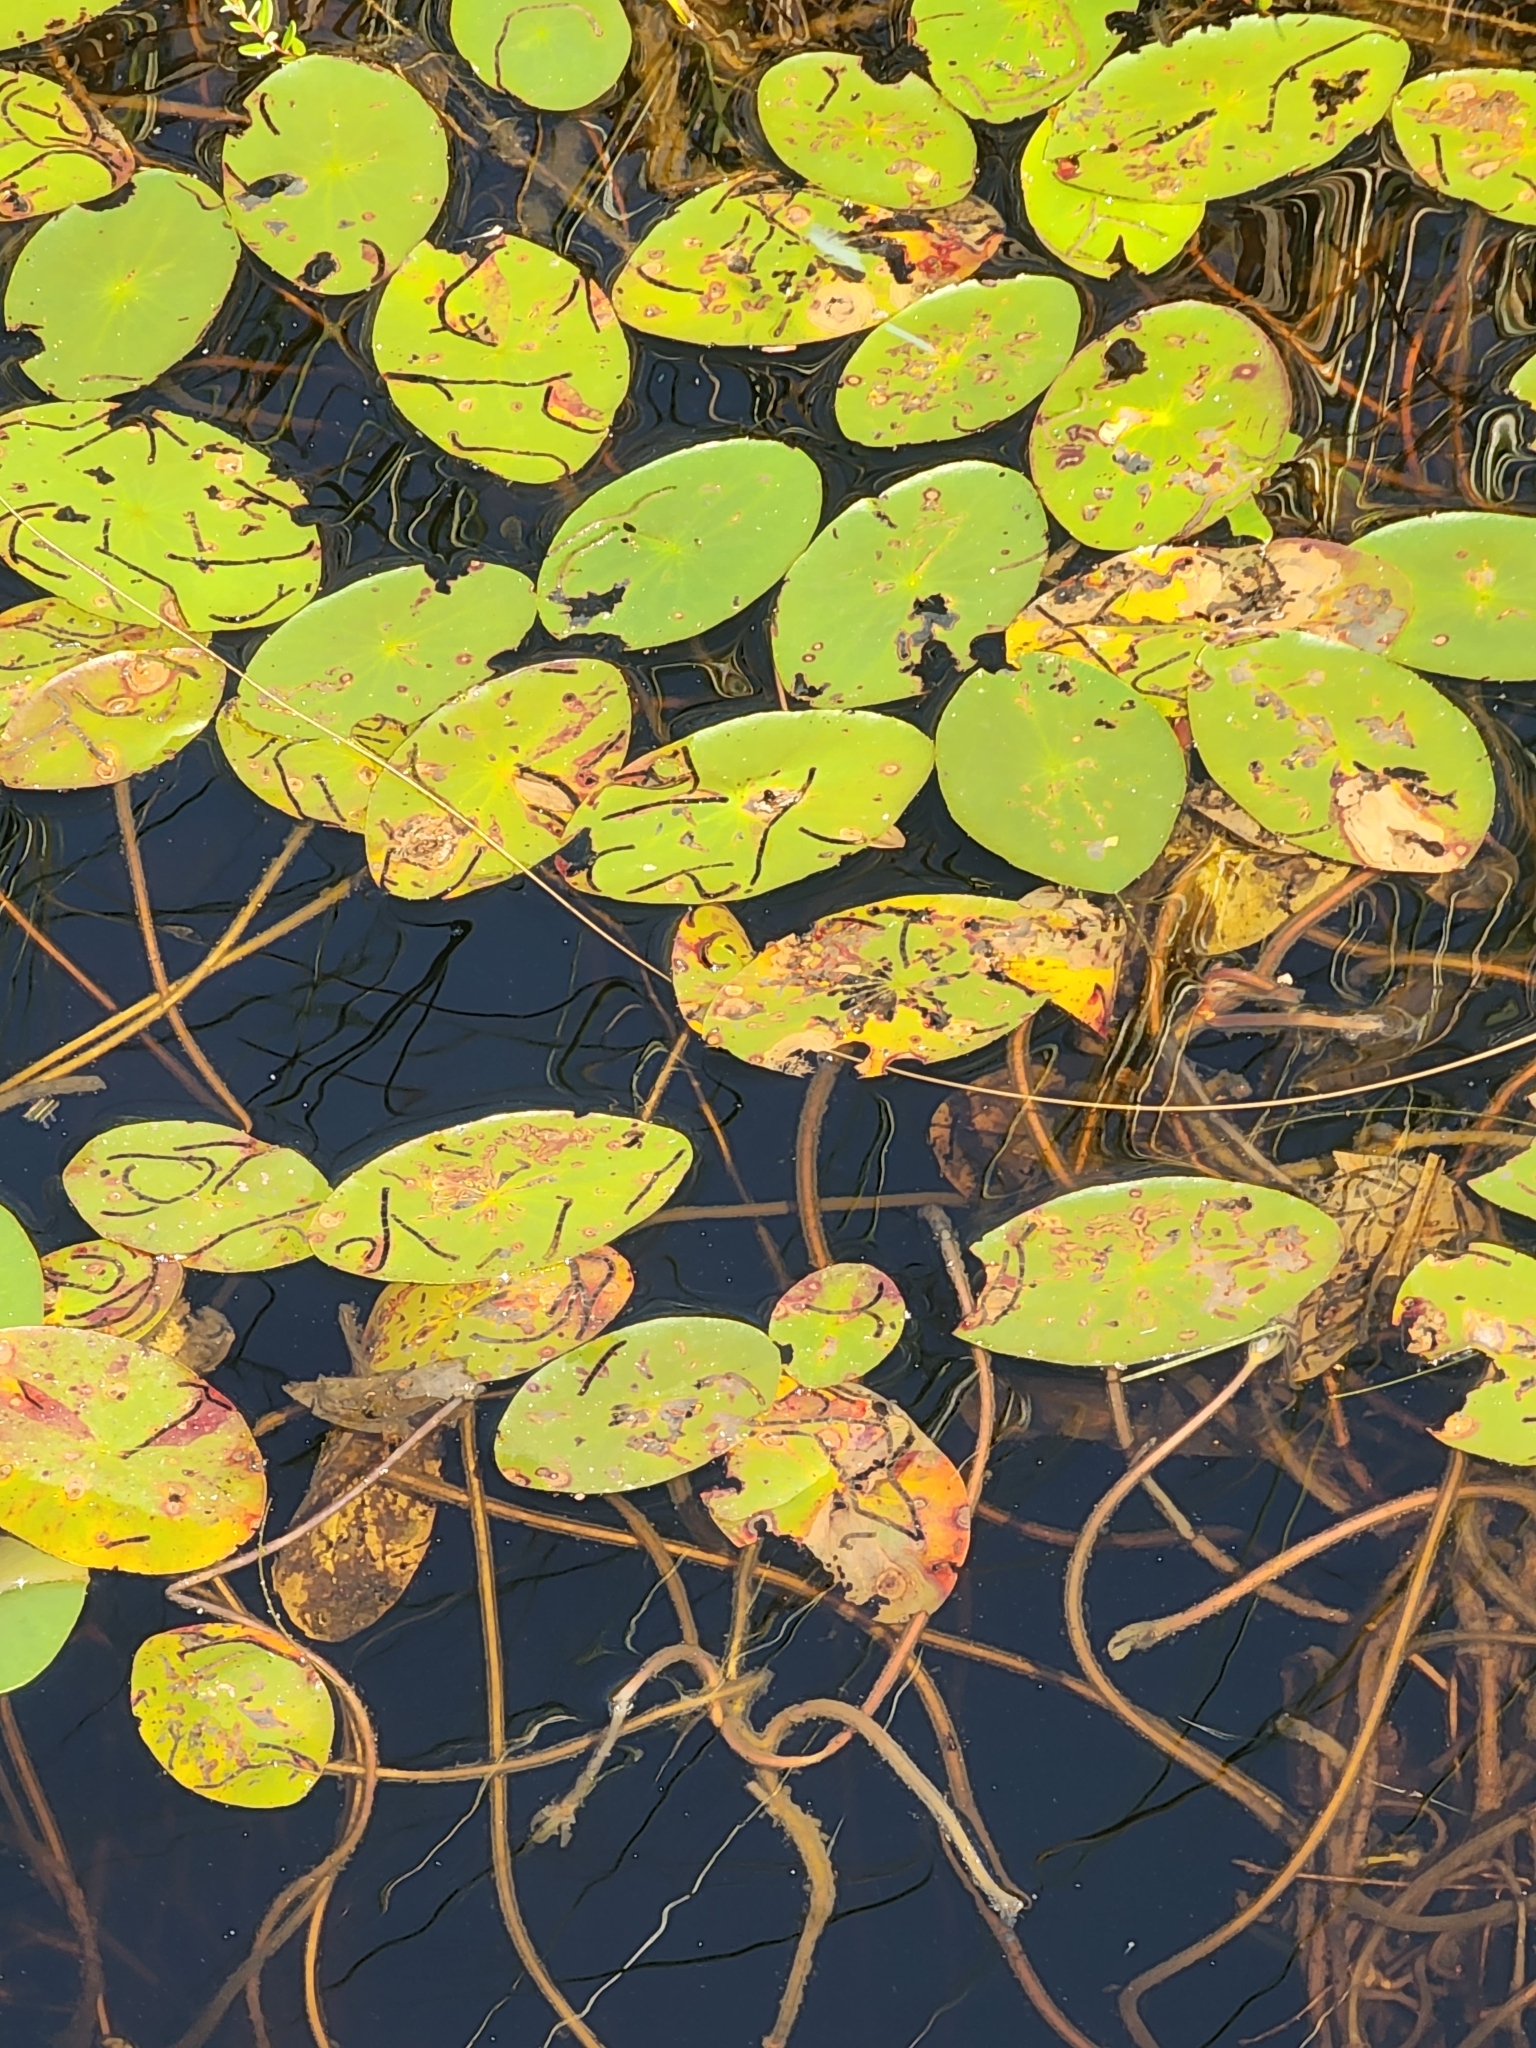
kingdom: Plantae
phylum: Tracheophyta
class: Magnoliopsida
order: Nymphaeales
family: Cabombaceae
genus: Brasenia
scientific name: Brasenia schreberi
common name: Water-shield
